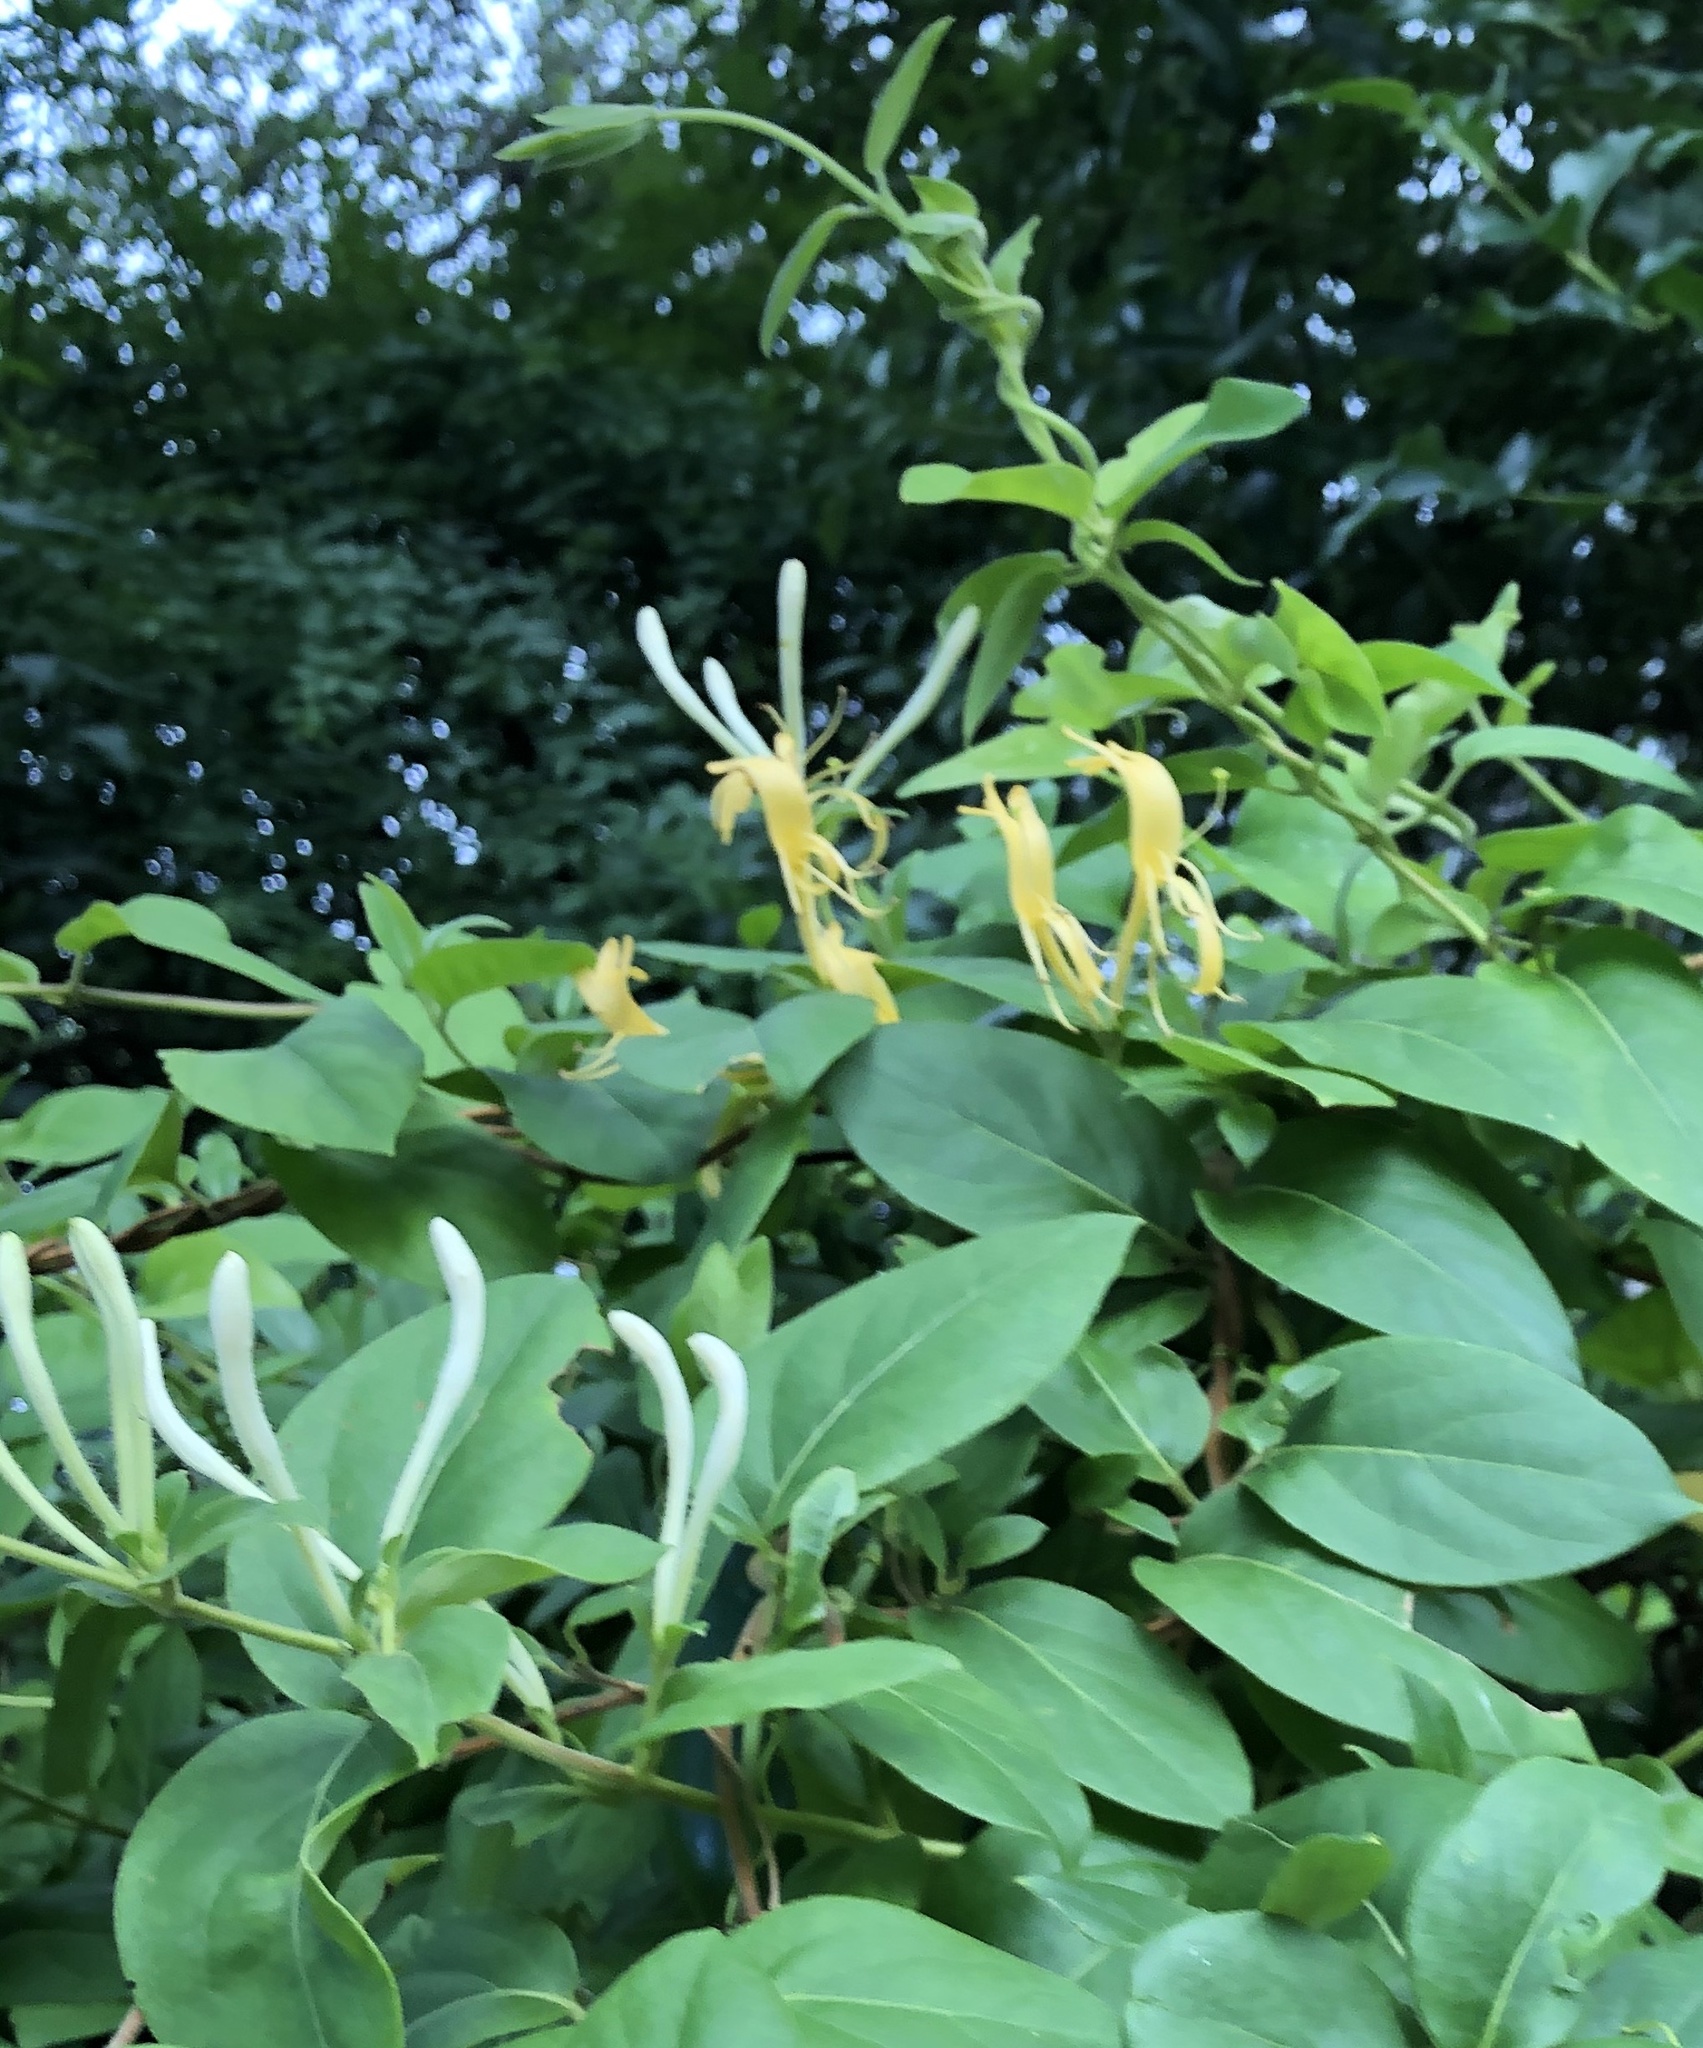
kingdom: Plantae
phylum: Tracheophyta
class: Magnoliopsida
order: Dipsacales
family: Caprifoliaceae
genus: Lonicera
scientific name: Lonicera japonica
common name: Japanese honeysuckle
